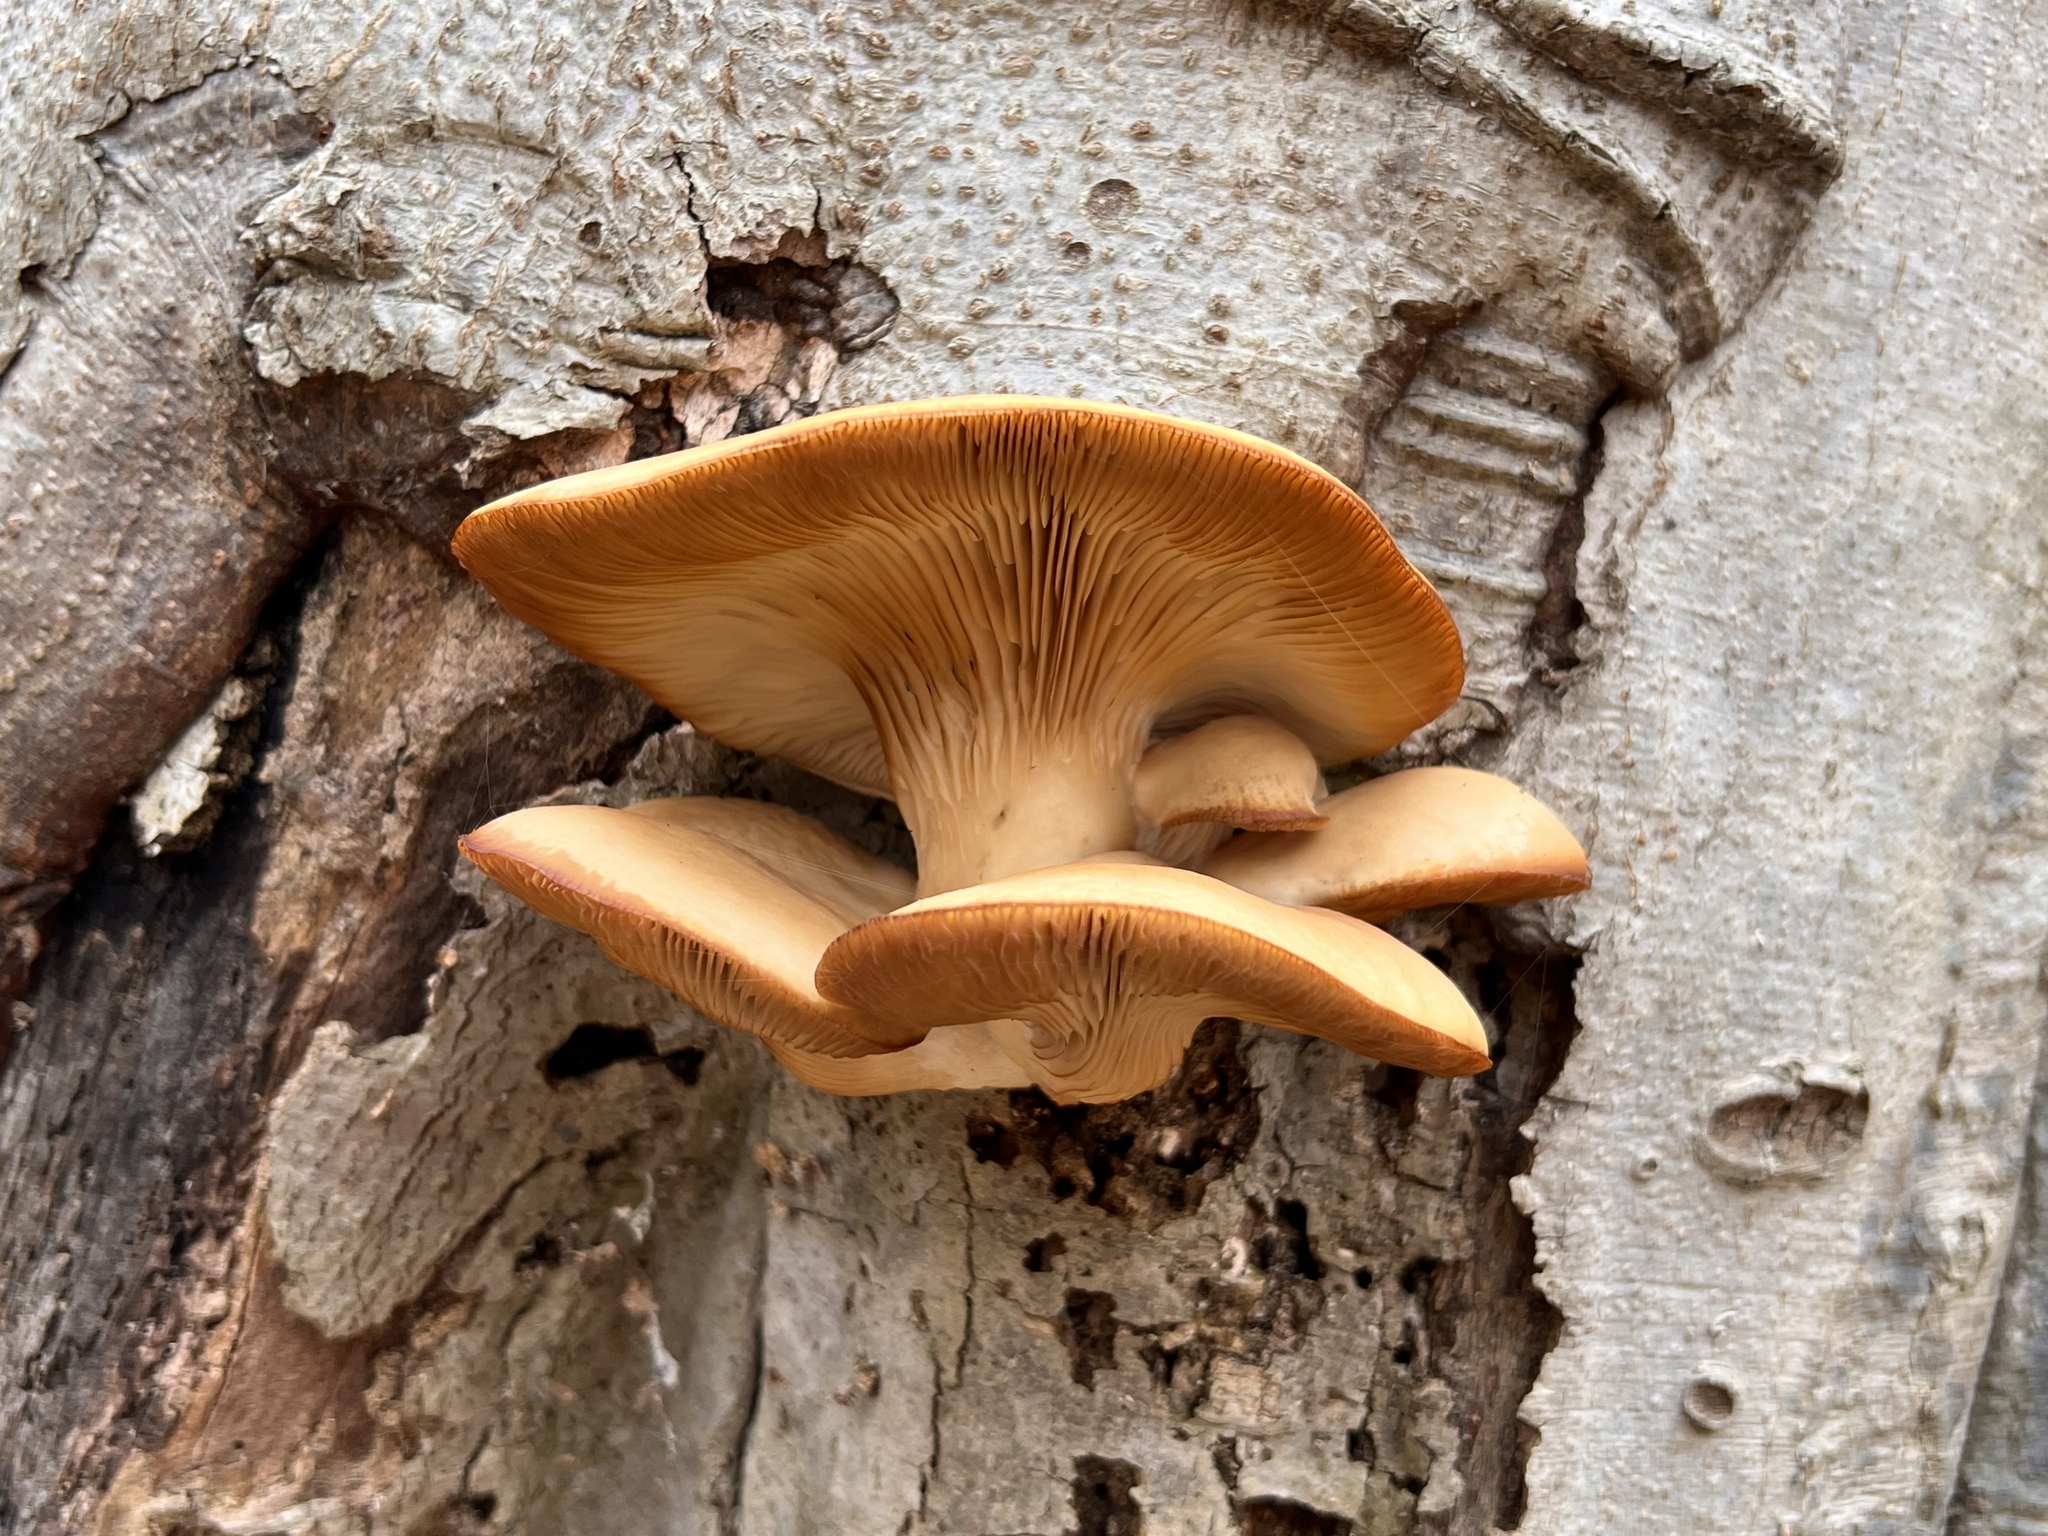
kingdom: Fungi
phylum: Basidiomycota
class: Agaricomycetes
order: Agaricales
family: Pleurotaceae
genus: Pleurotus
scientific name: Pleurotus ostreatus
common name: Oyster mushroom
